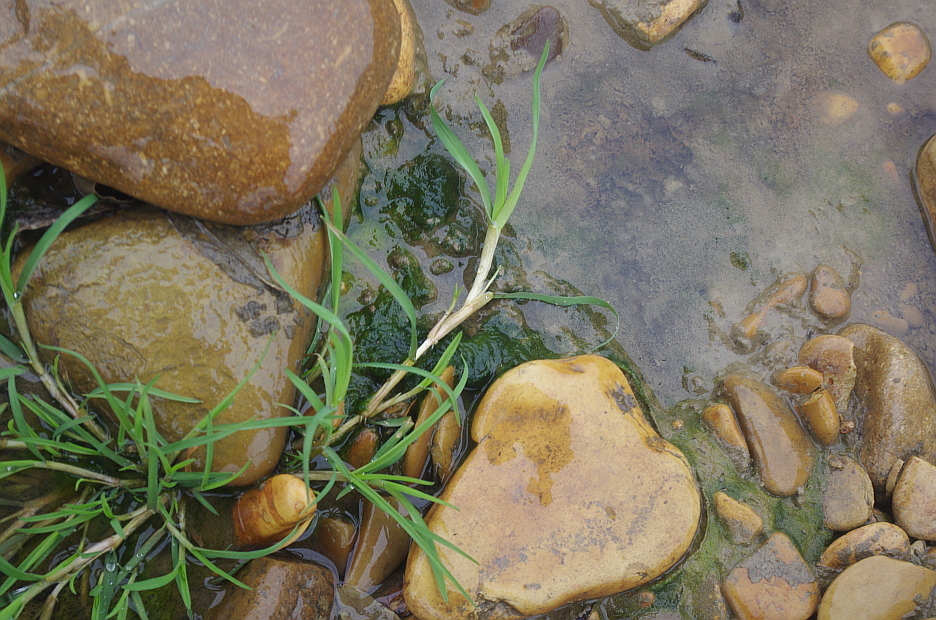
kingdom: Plantae
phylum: Tracheophyta
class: Liliopsida
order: Poales
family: Poaceae
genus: Catabrosa
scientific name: Catabrosa aquatica
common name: Whorl-grass
